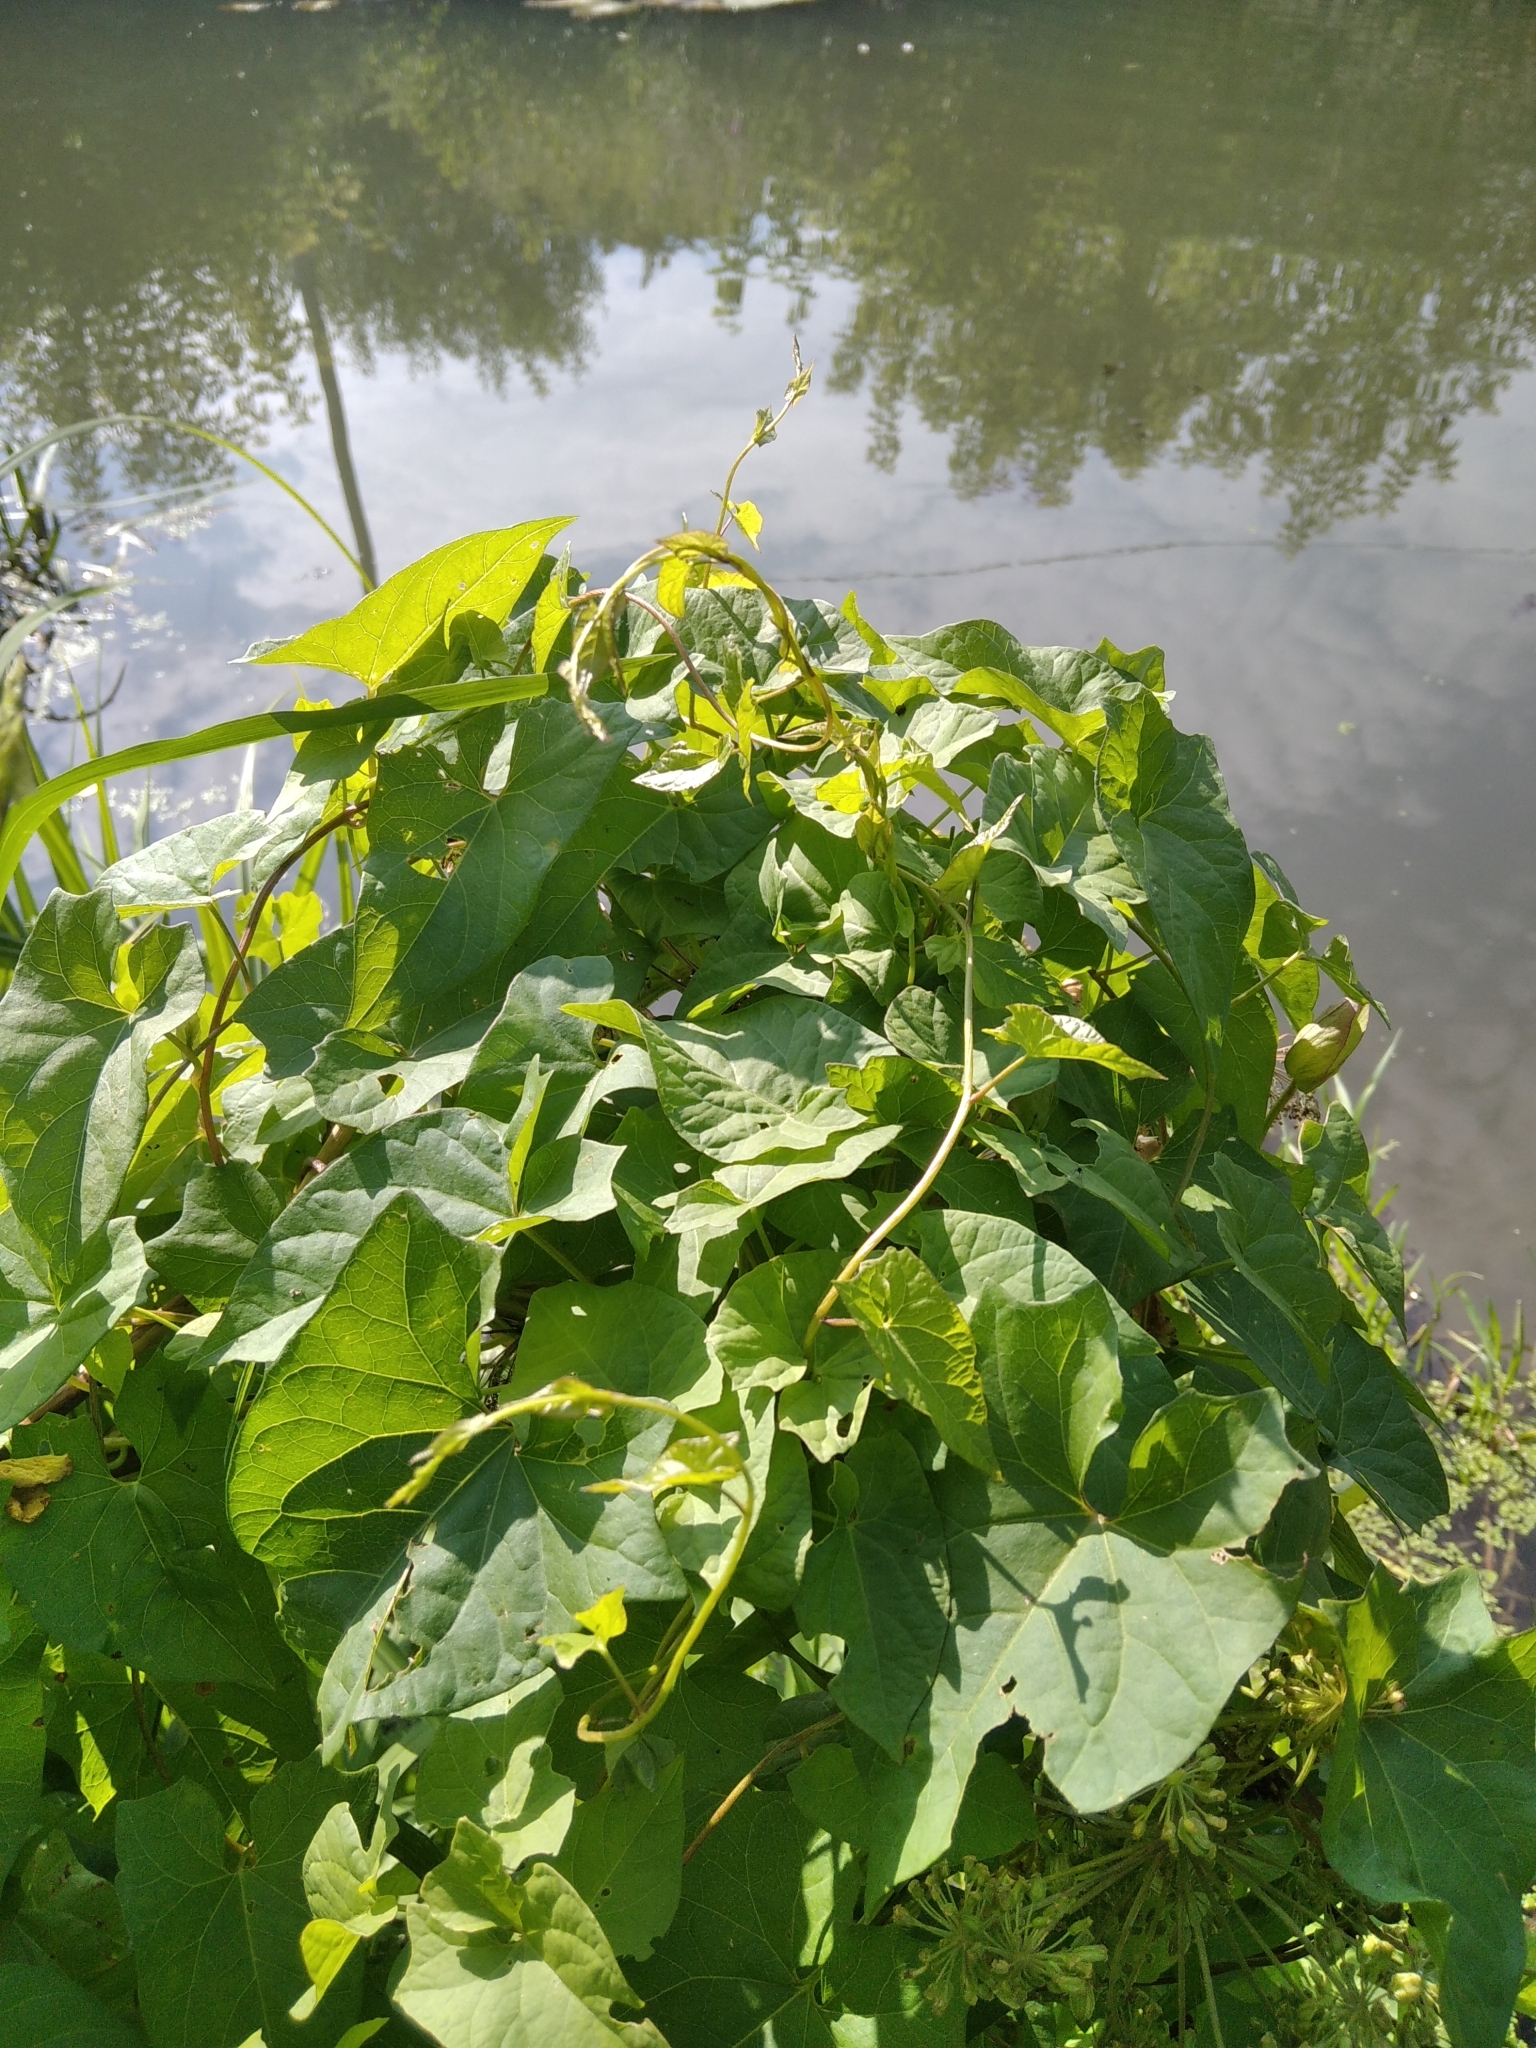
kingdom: Plantae
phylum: Tracheophyta
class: Magnoliopsida
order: Solanales
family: Convolvulaceae
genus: Calystegia
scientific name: Calystegia sepium
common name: Hedge bindweed
